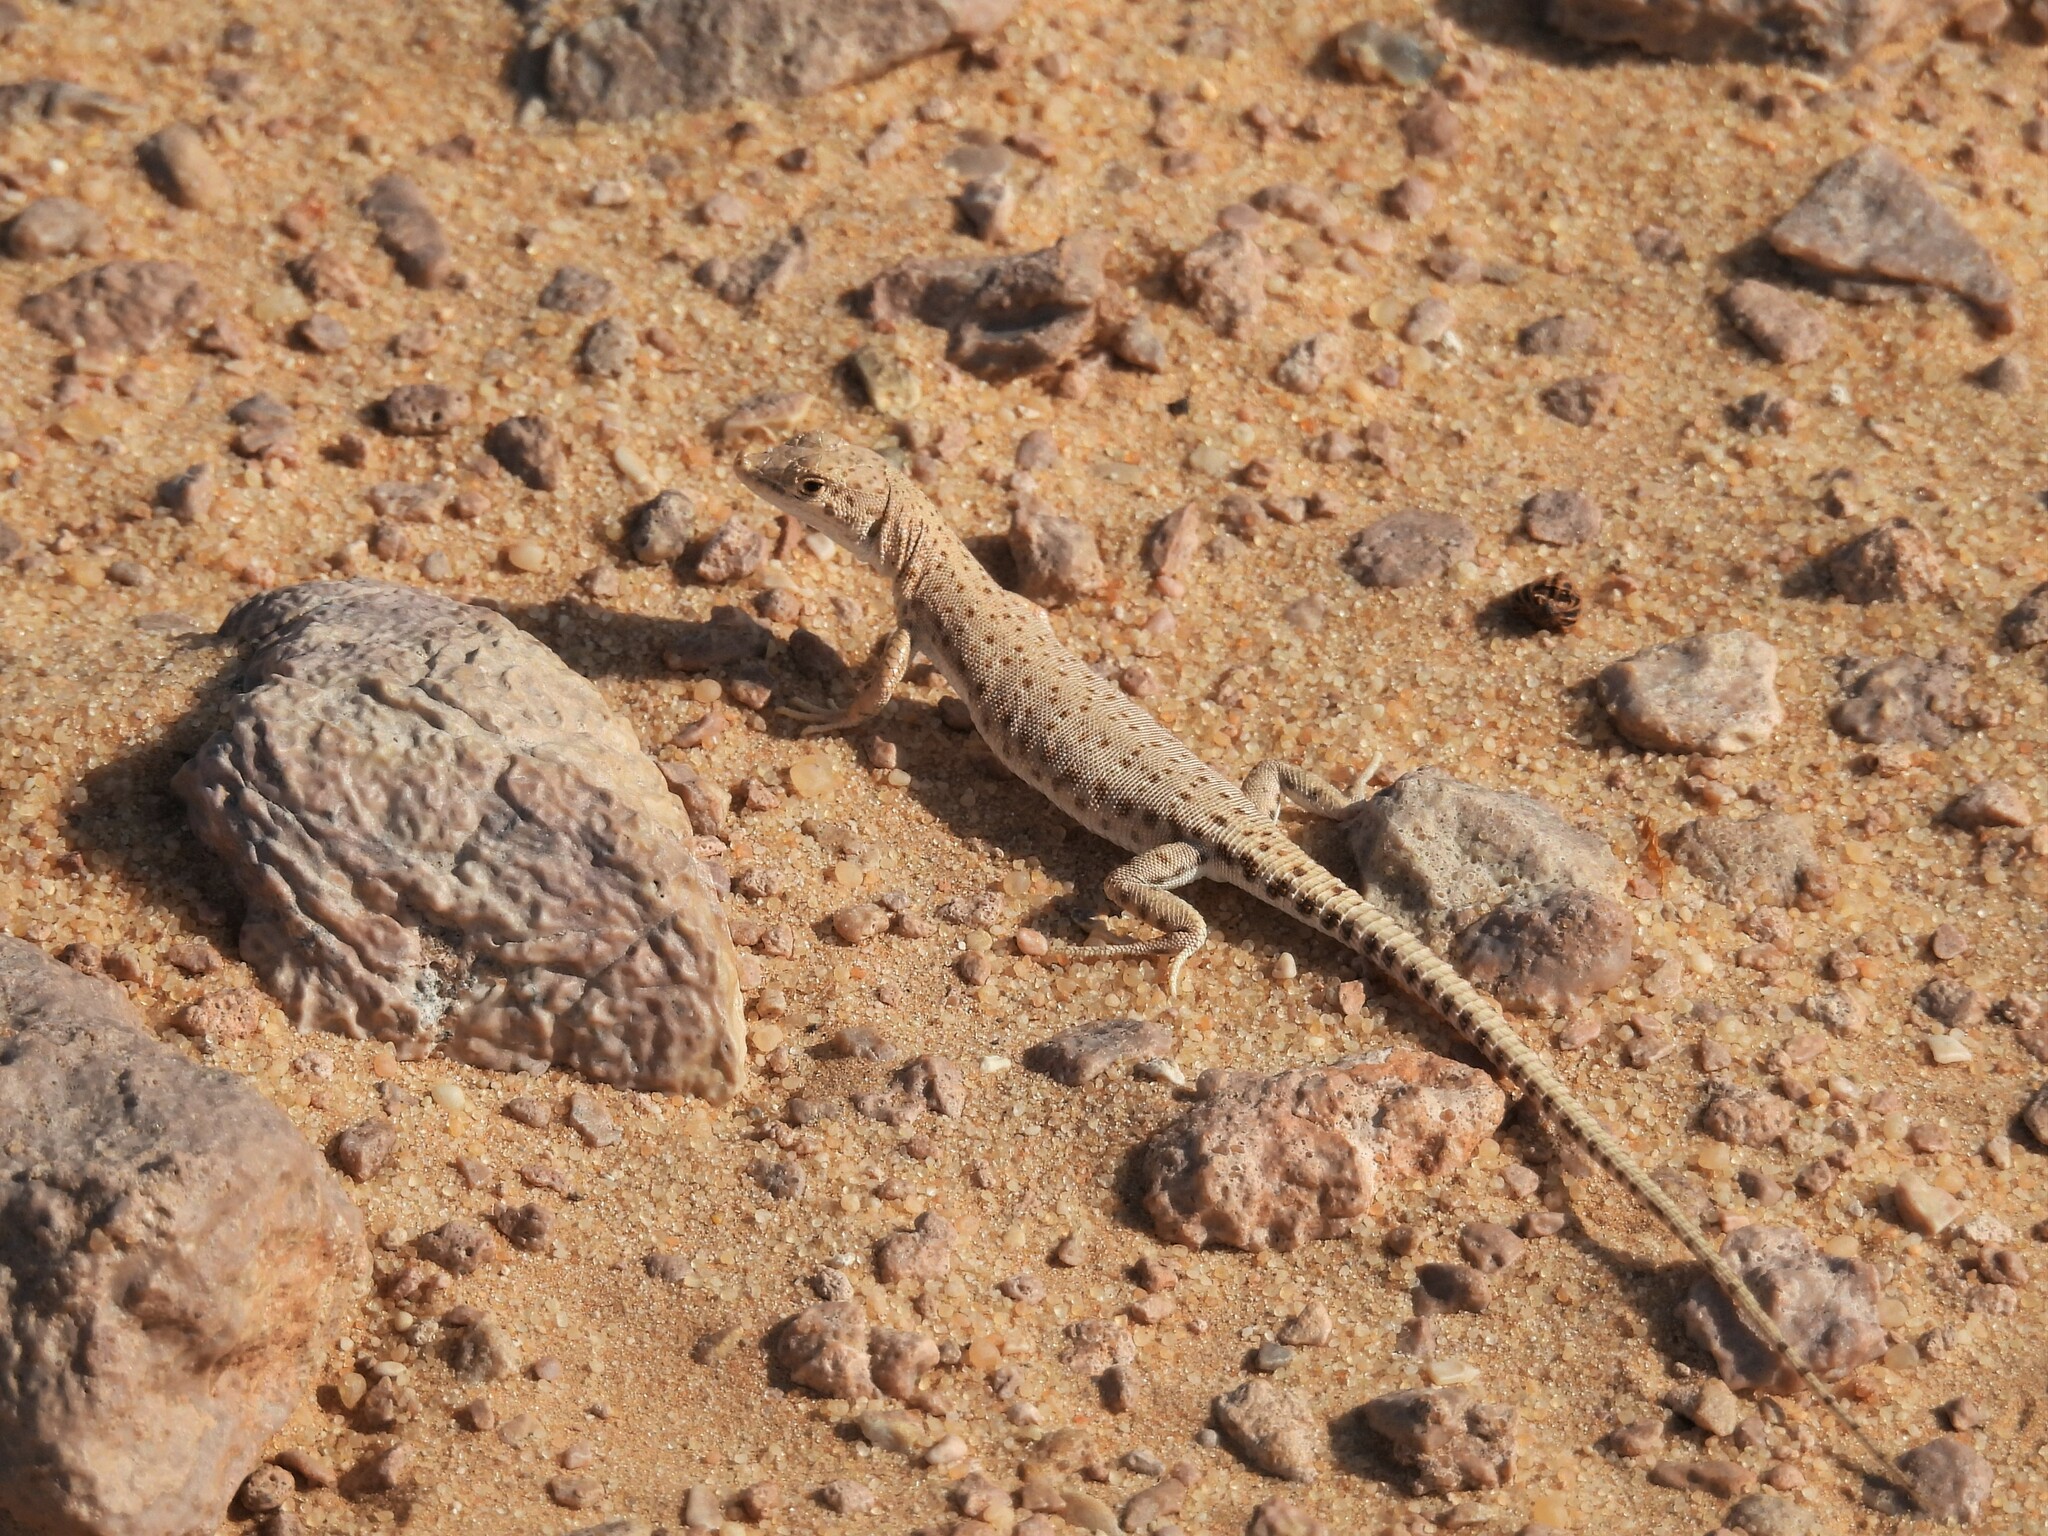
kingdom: Animalia
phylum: Chordata
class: Squamata
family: Lacertidae
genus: Mesalina
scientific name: Mesalina brevirostris
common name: Blanford's short-nosed desert lizard
